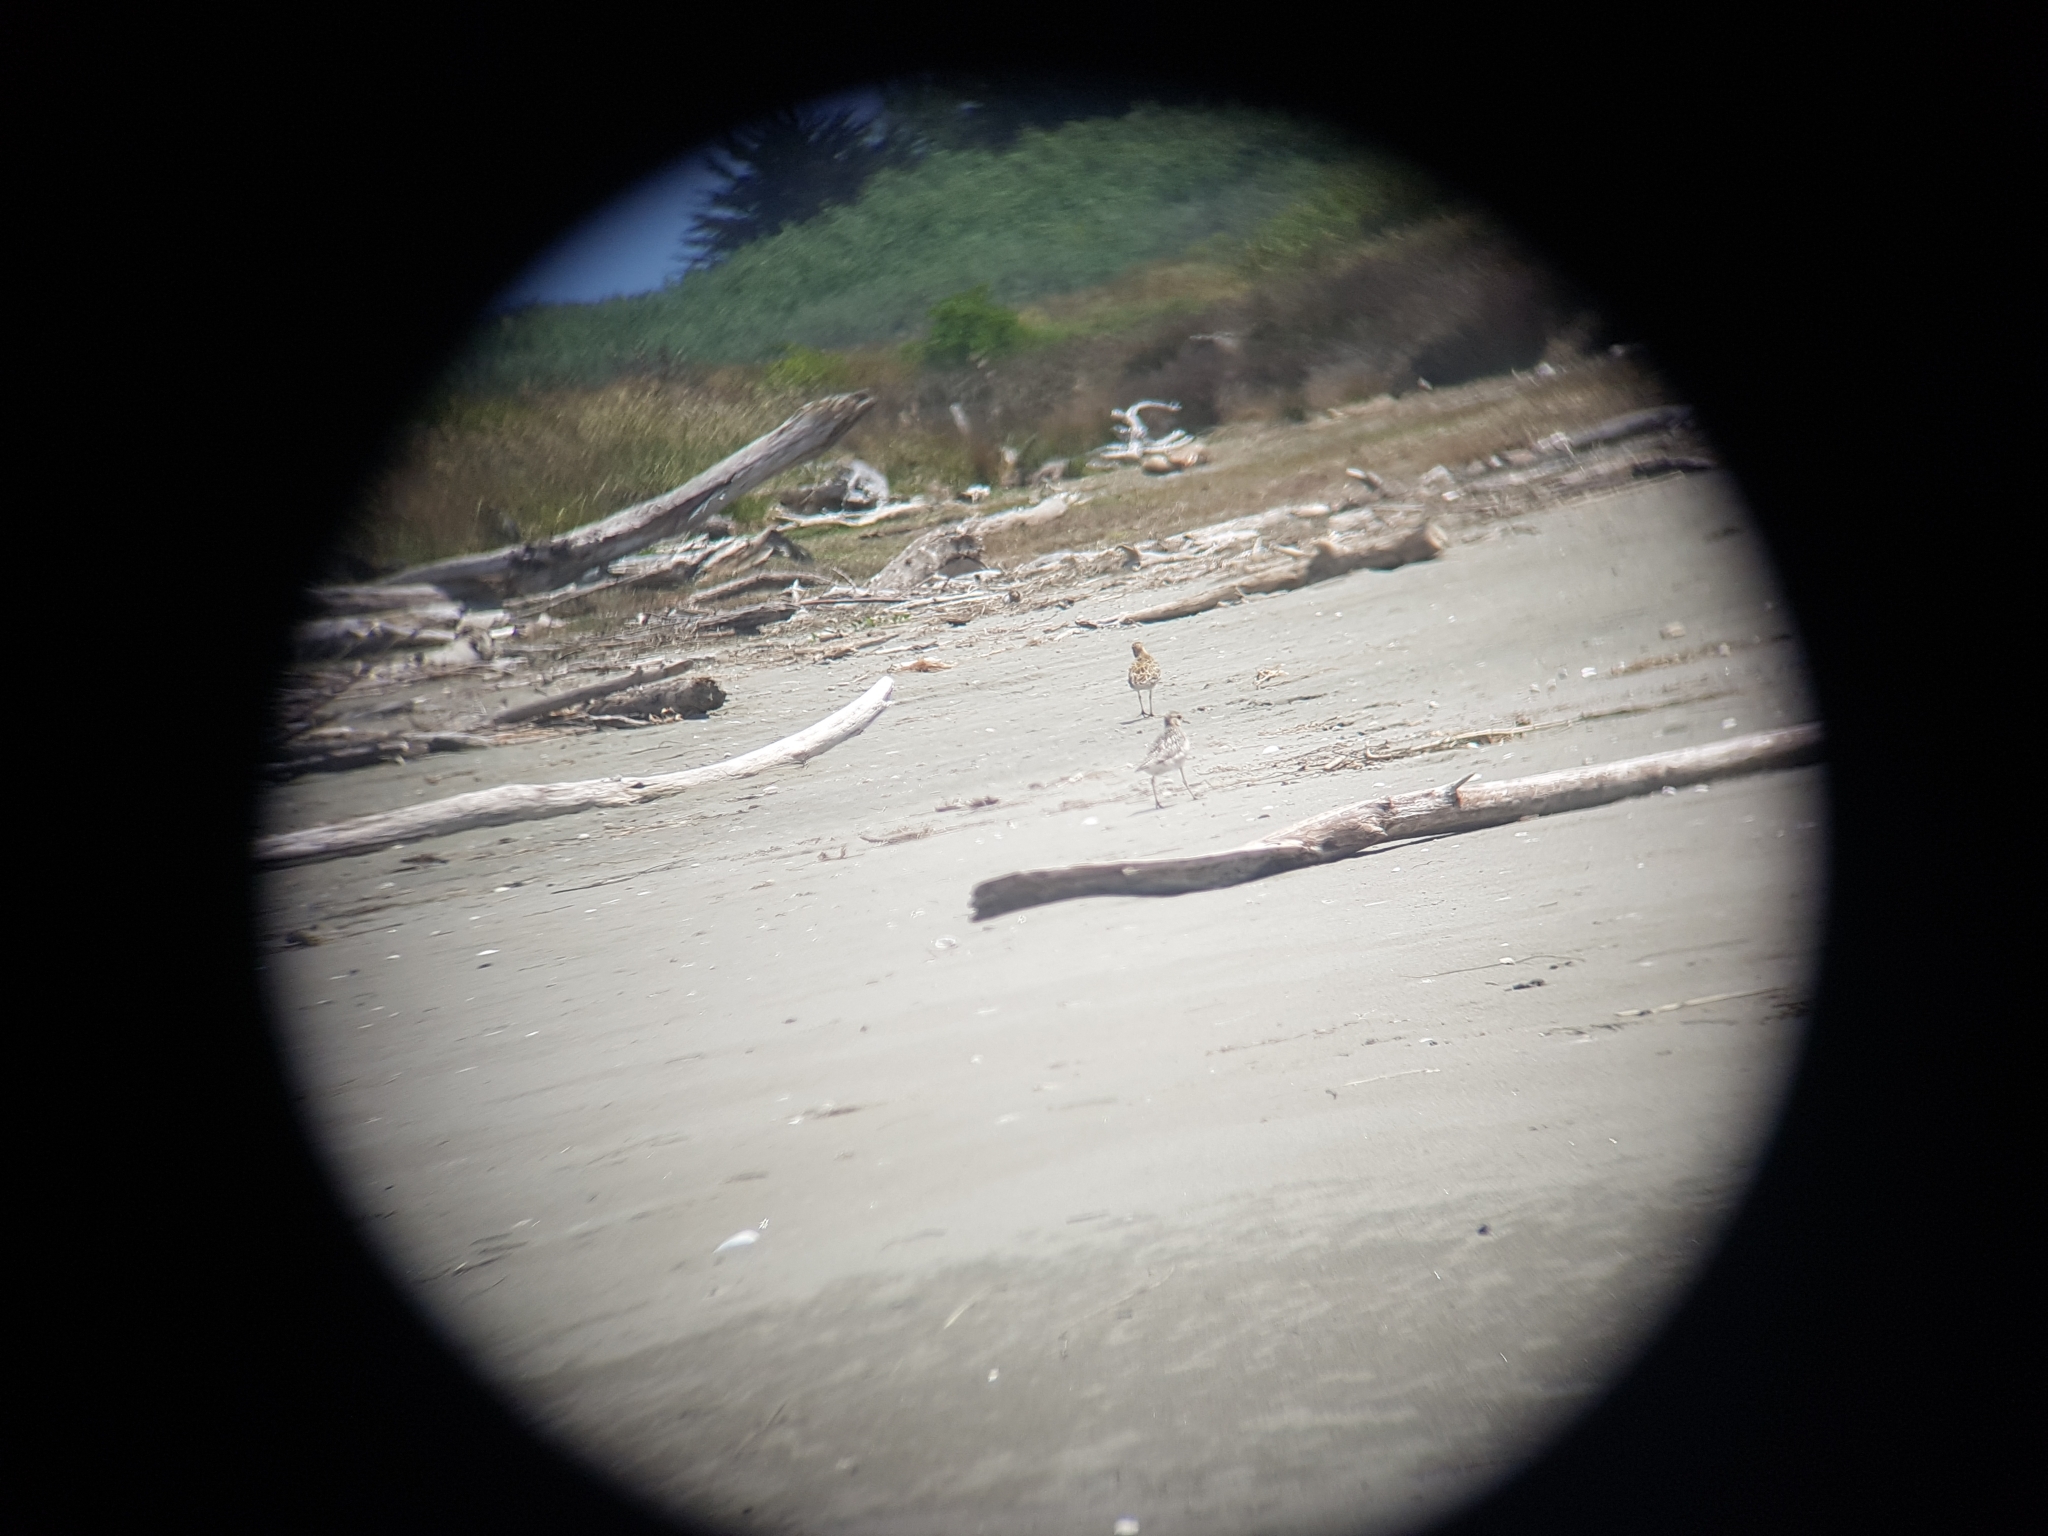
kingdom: Animalia
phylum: Chordata
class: Aves
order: Charadriiformes
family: Scolopacidae
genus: Limosa
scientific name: Limosa lapponica
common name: Bar-tailed godwit
